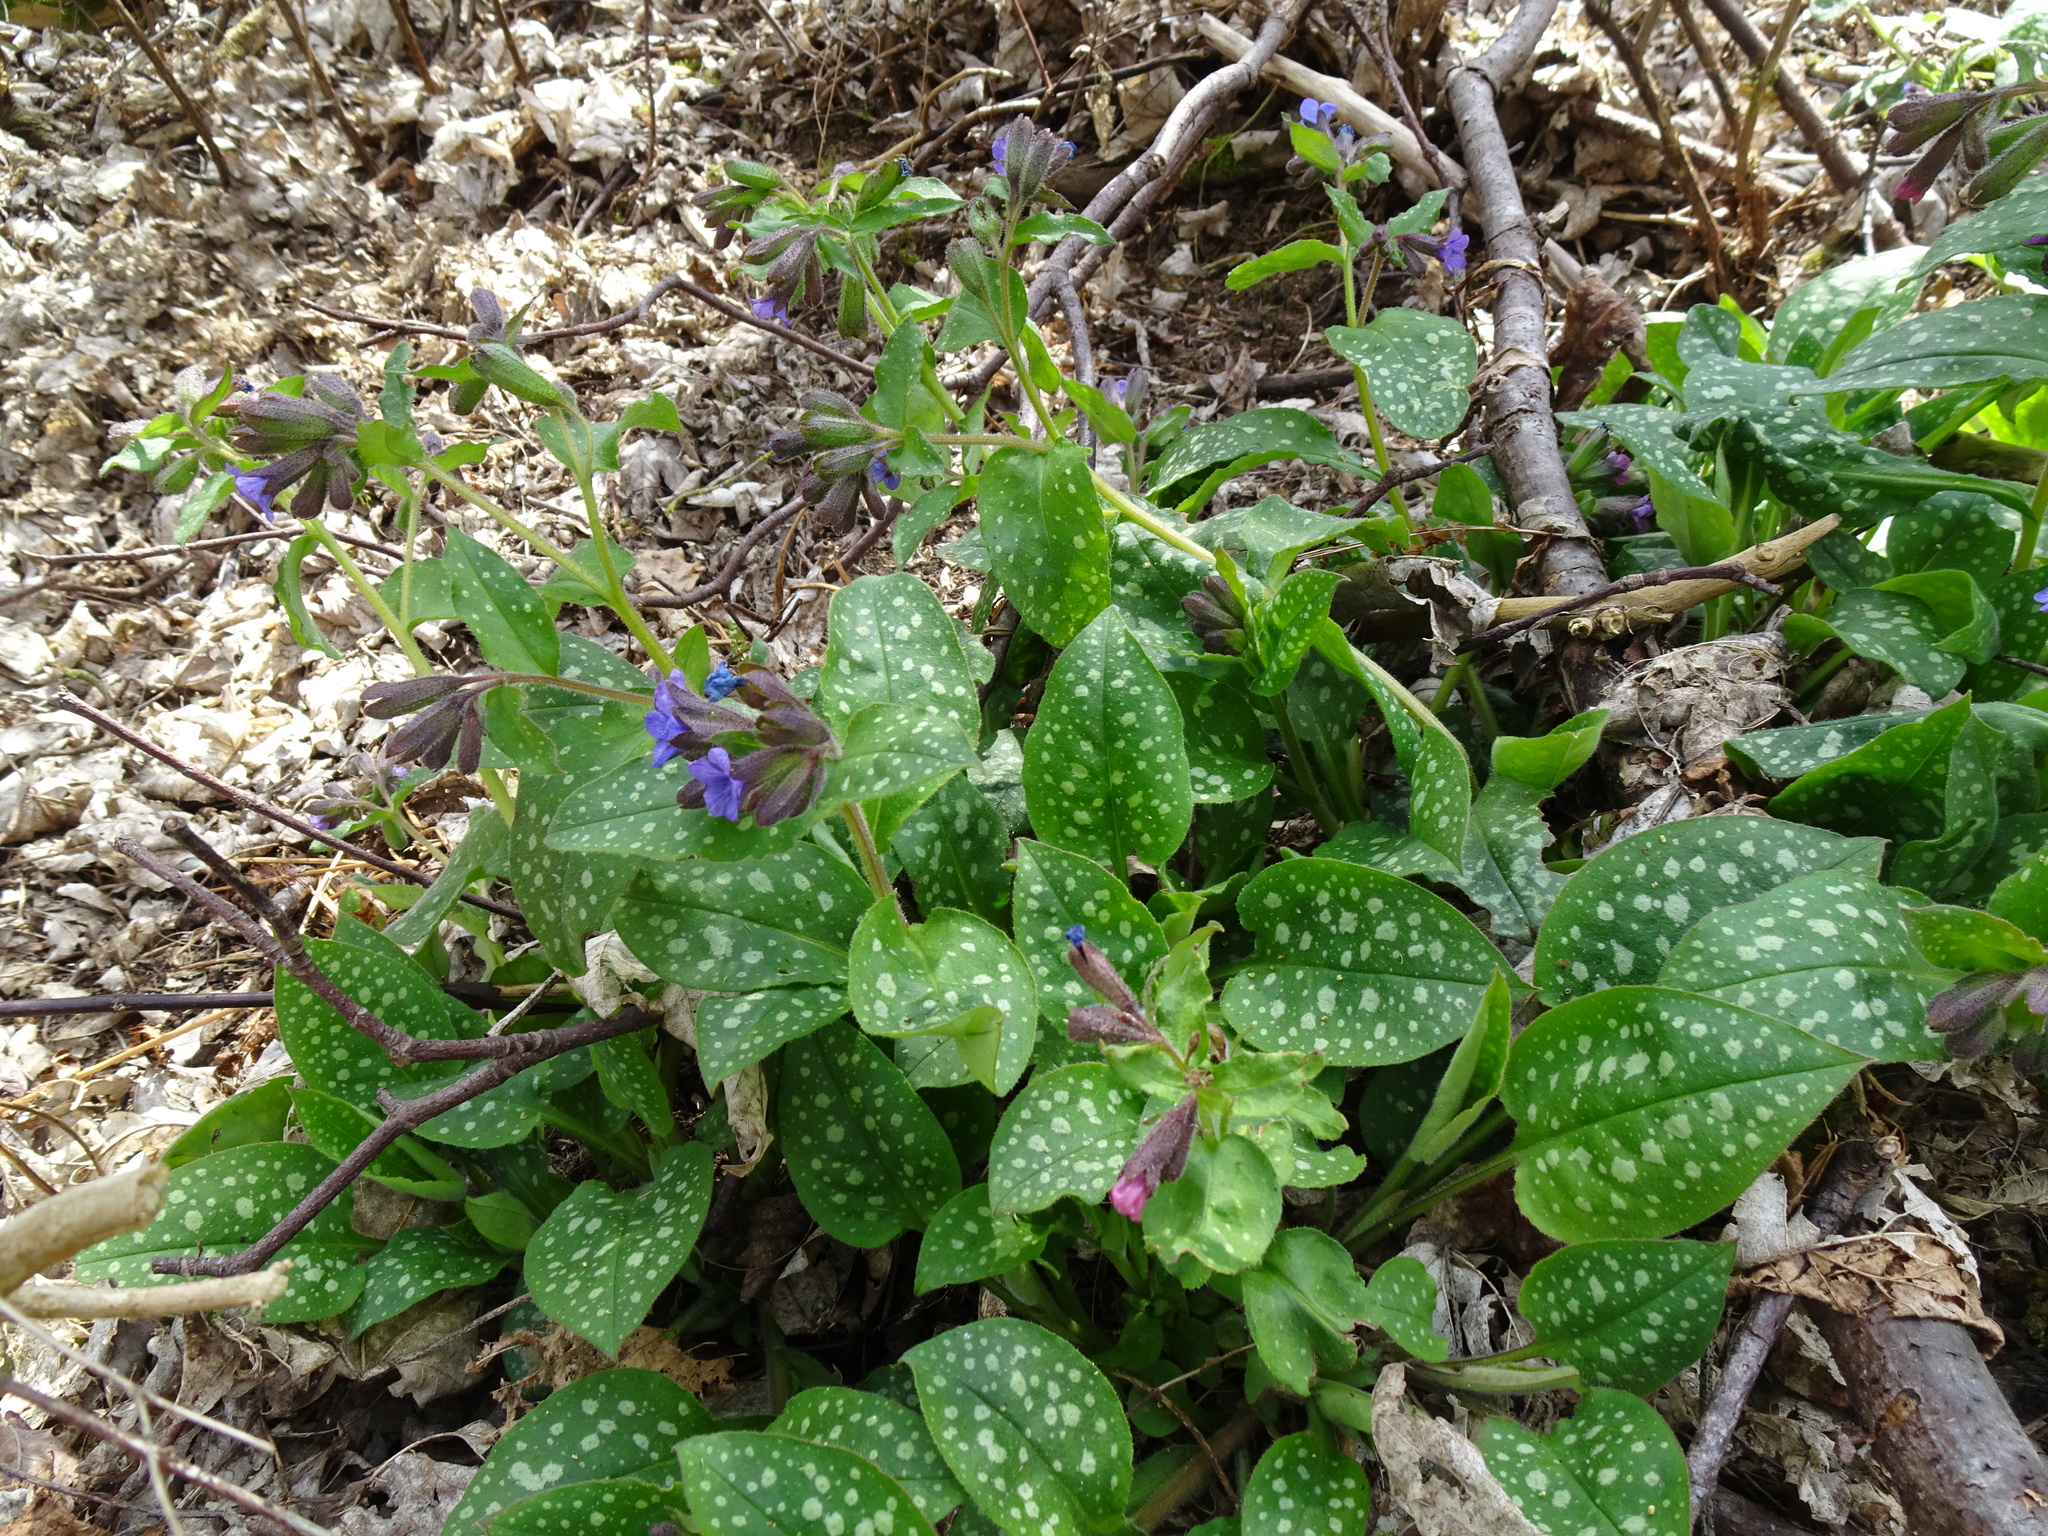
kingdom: Plantae
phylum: Tracheophyta
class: Magnoliopsida
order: Boraginales
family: Boraginaceae
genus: Pulmonaria
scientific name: Pulmonaria officinalis
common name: Lungwort
